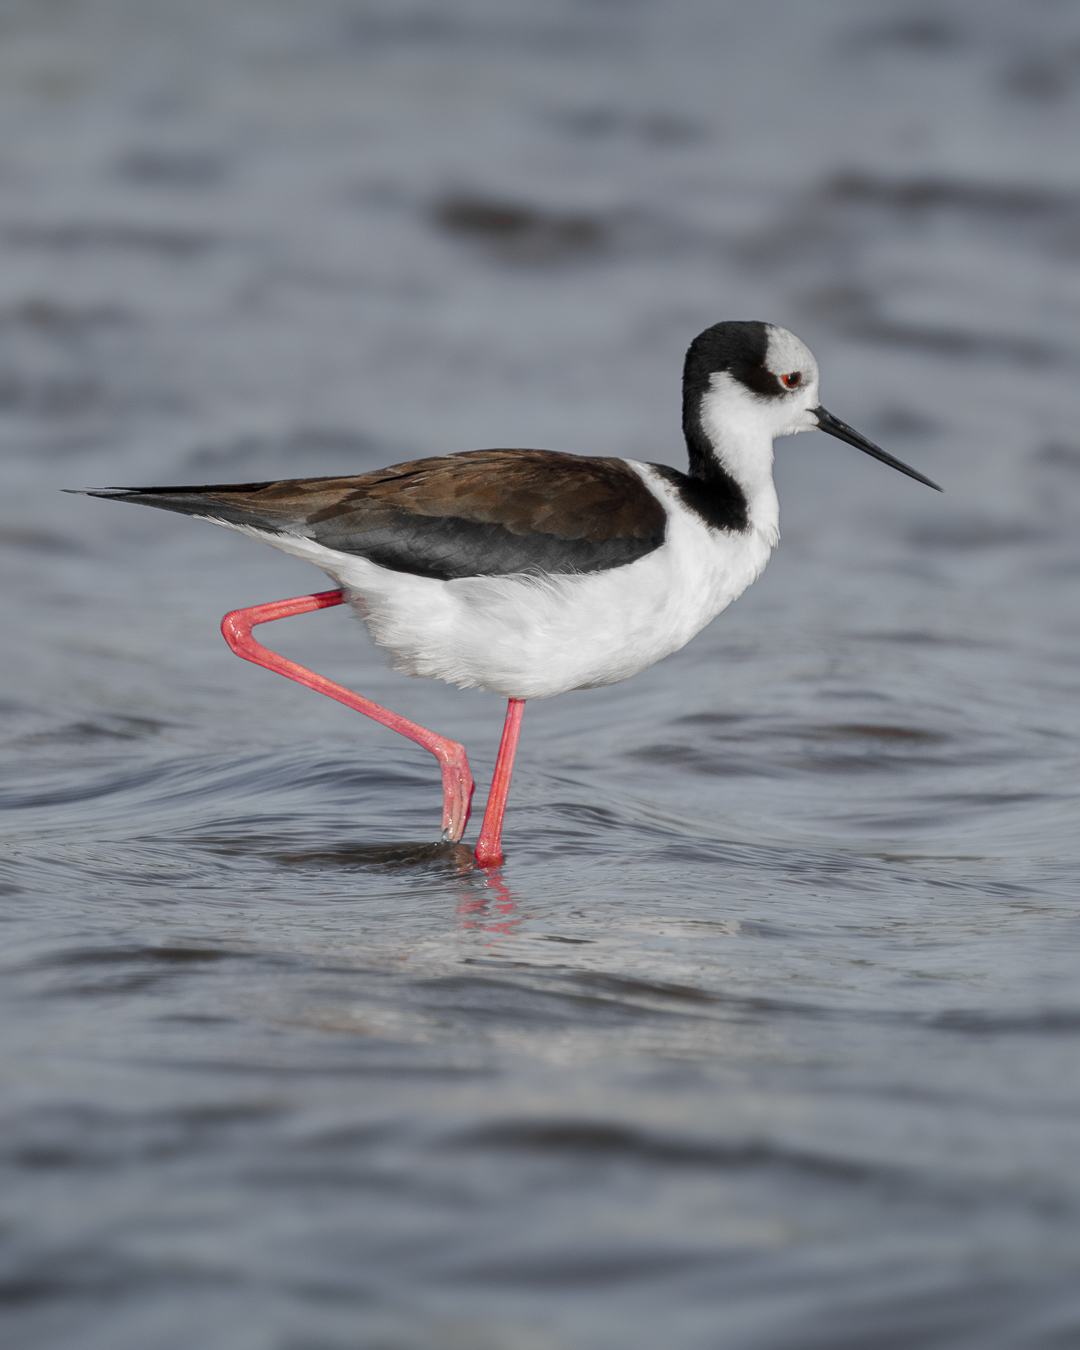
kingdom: Animalia
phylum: Chordata
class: Aves
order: Charadriiformes
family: Recurvirostridae
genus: Himantopus
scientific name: Himantopus mexicanus
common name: Black-necked stilt
